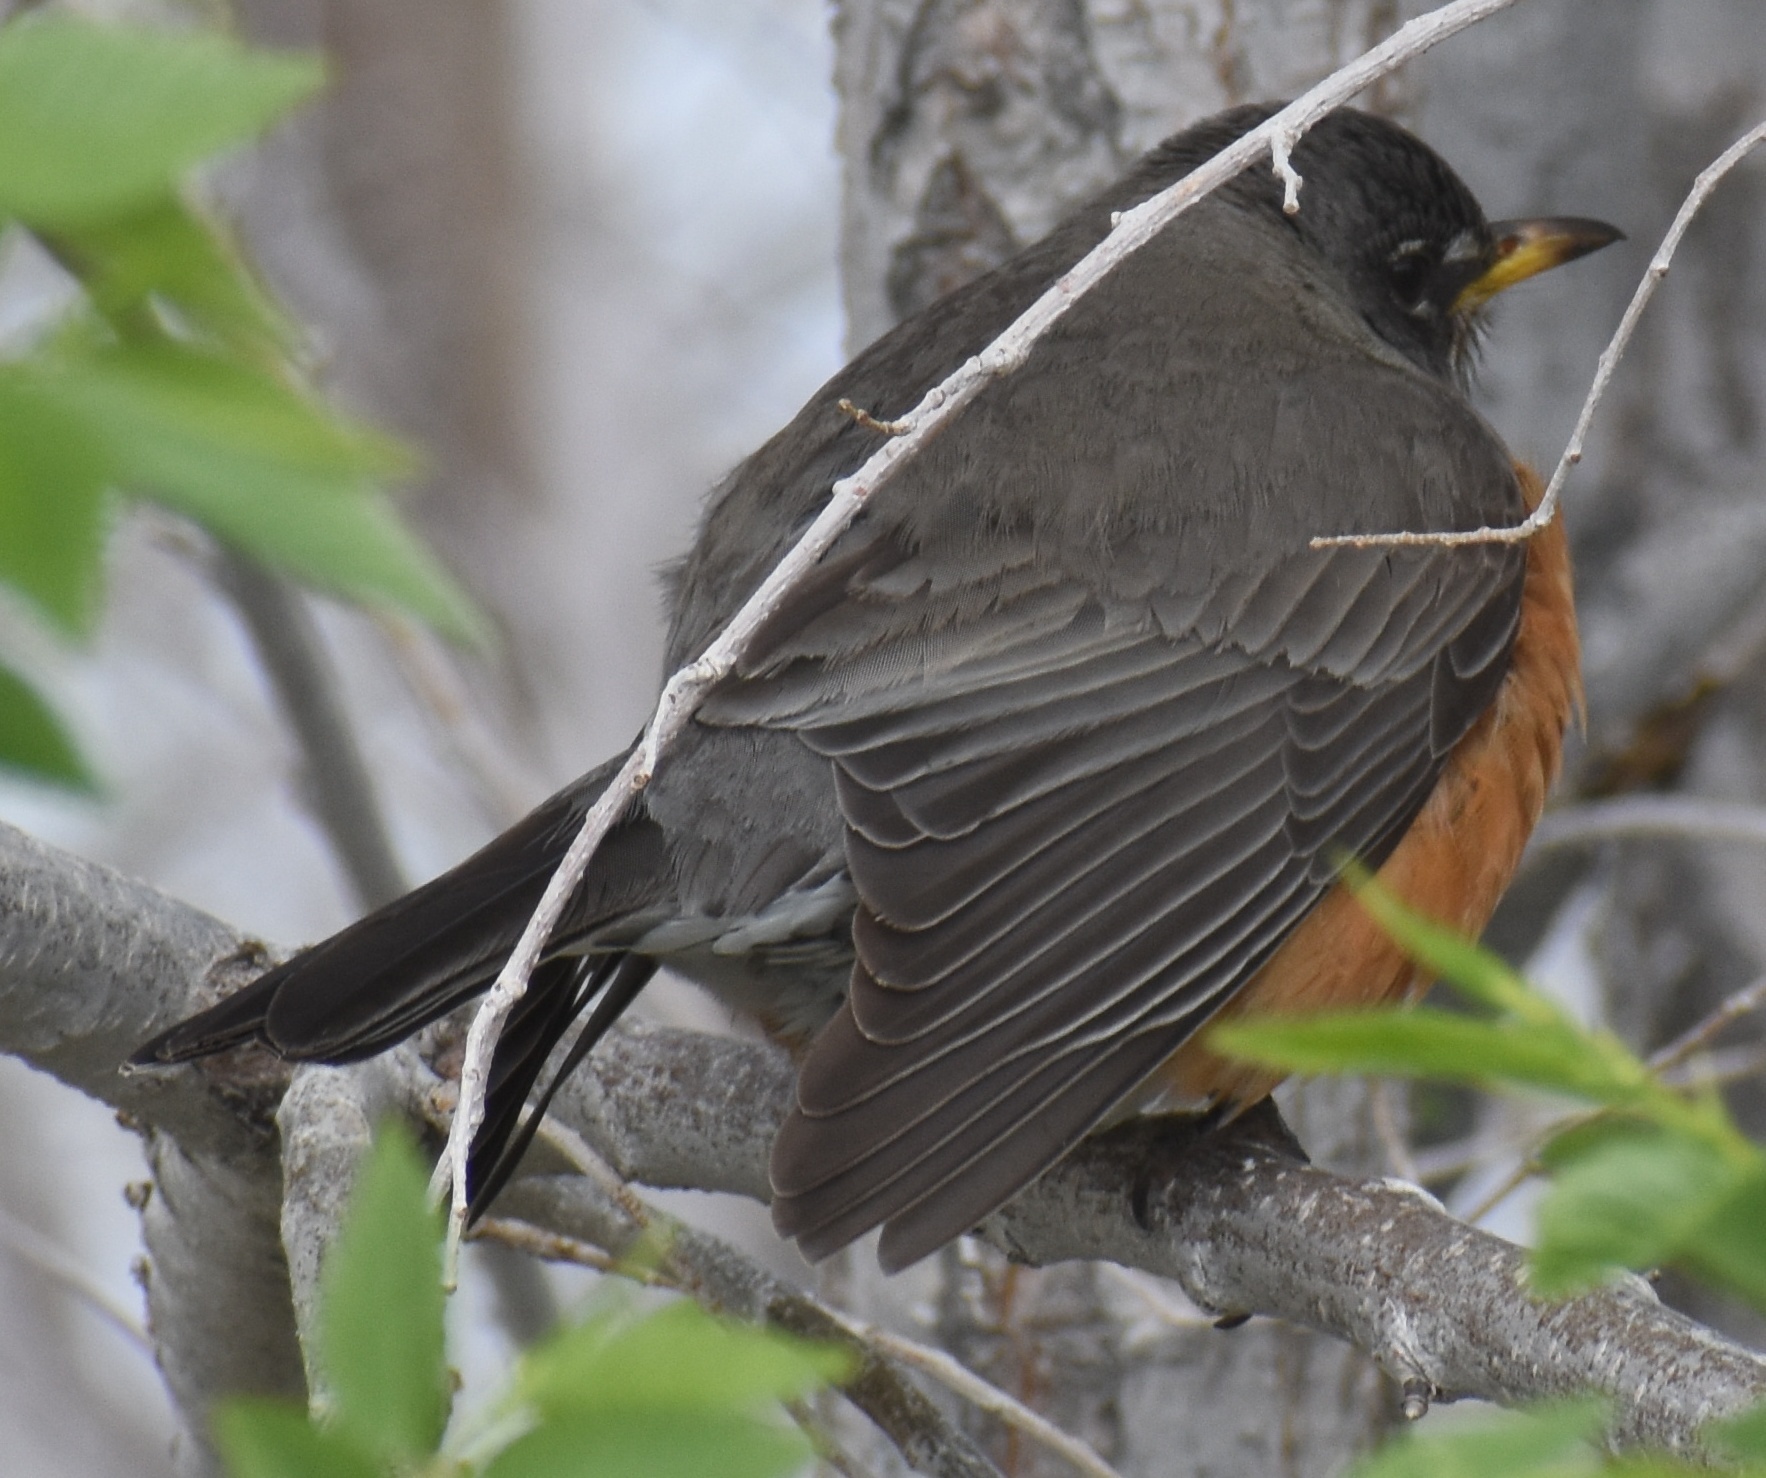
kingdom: Animalia
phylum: Chordata
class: Aves
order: Passeriformes
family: Turdidae
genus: Turdus
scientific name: Turdus migratorius
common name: American robin
